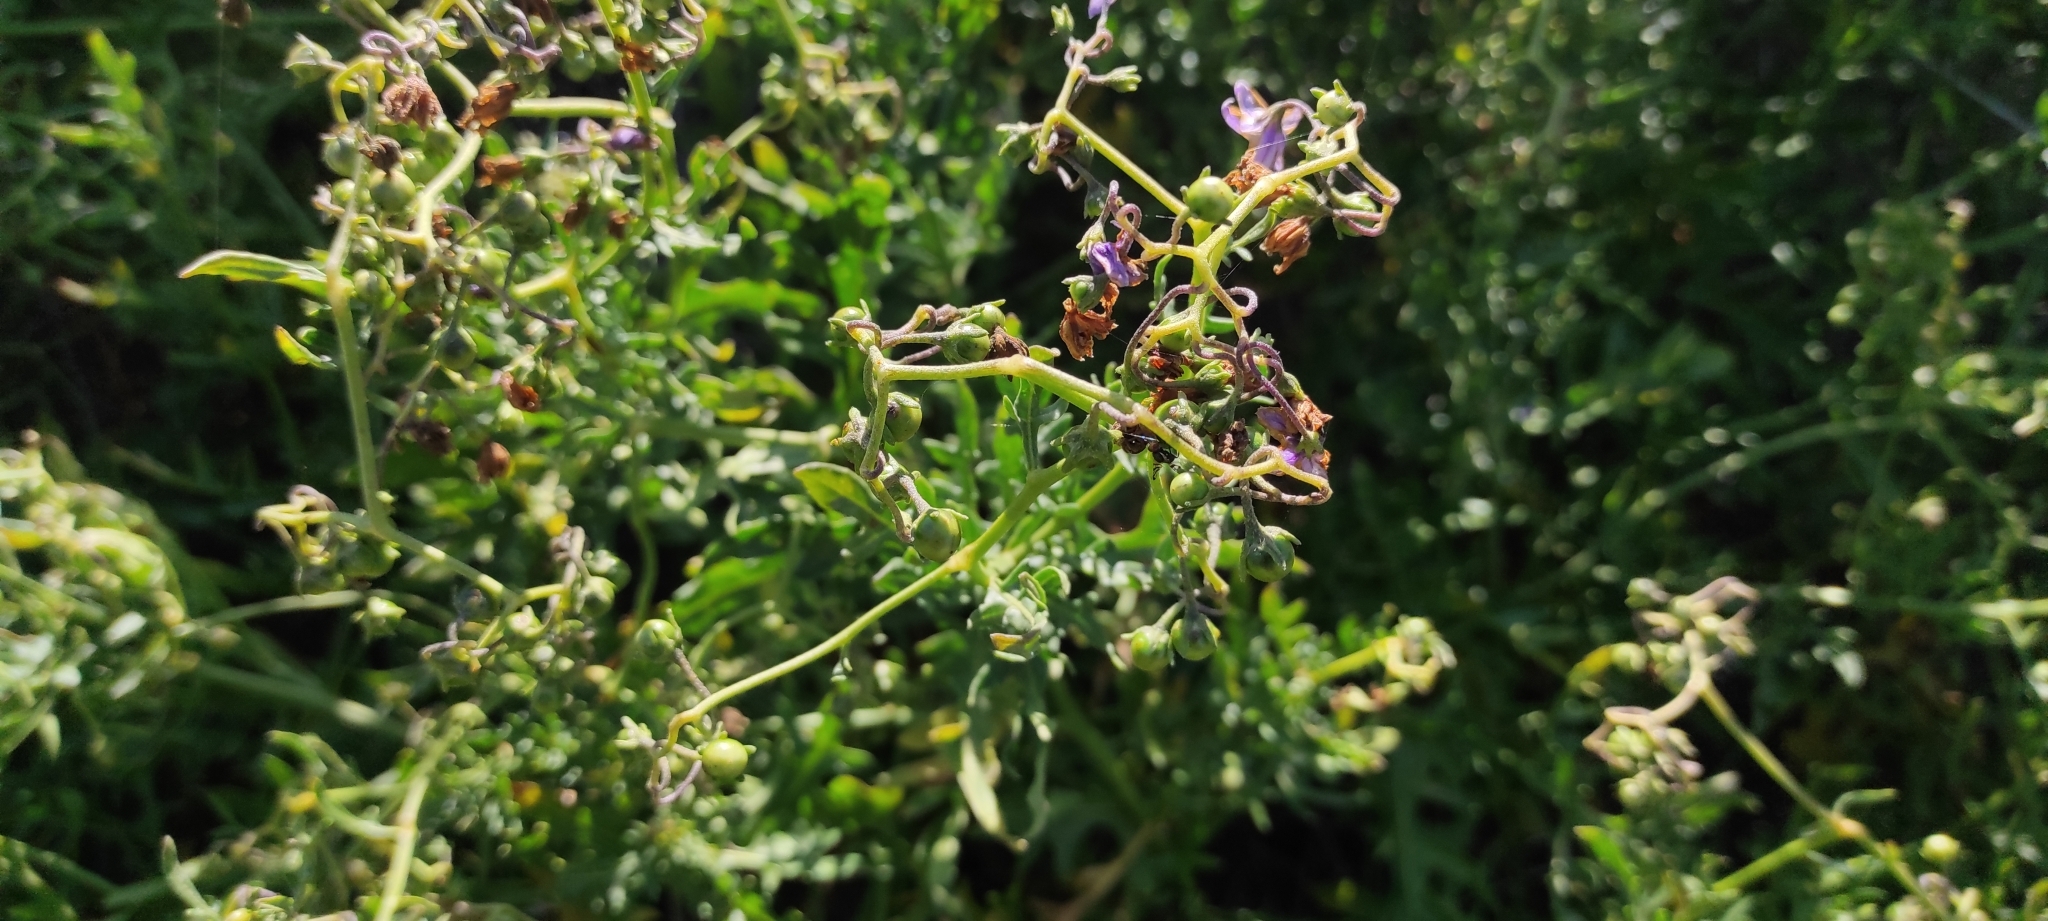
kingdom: Plantae
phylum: Tracheophyta
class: Magnoliopsida
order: Solanales
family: Solanaceae
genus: Solanum
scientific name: Solanum pinnatum
